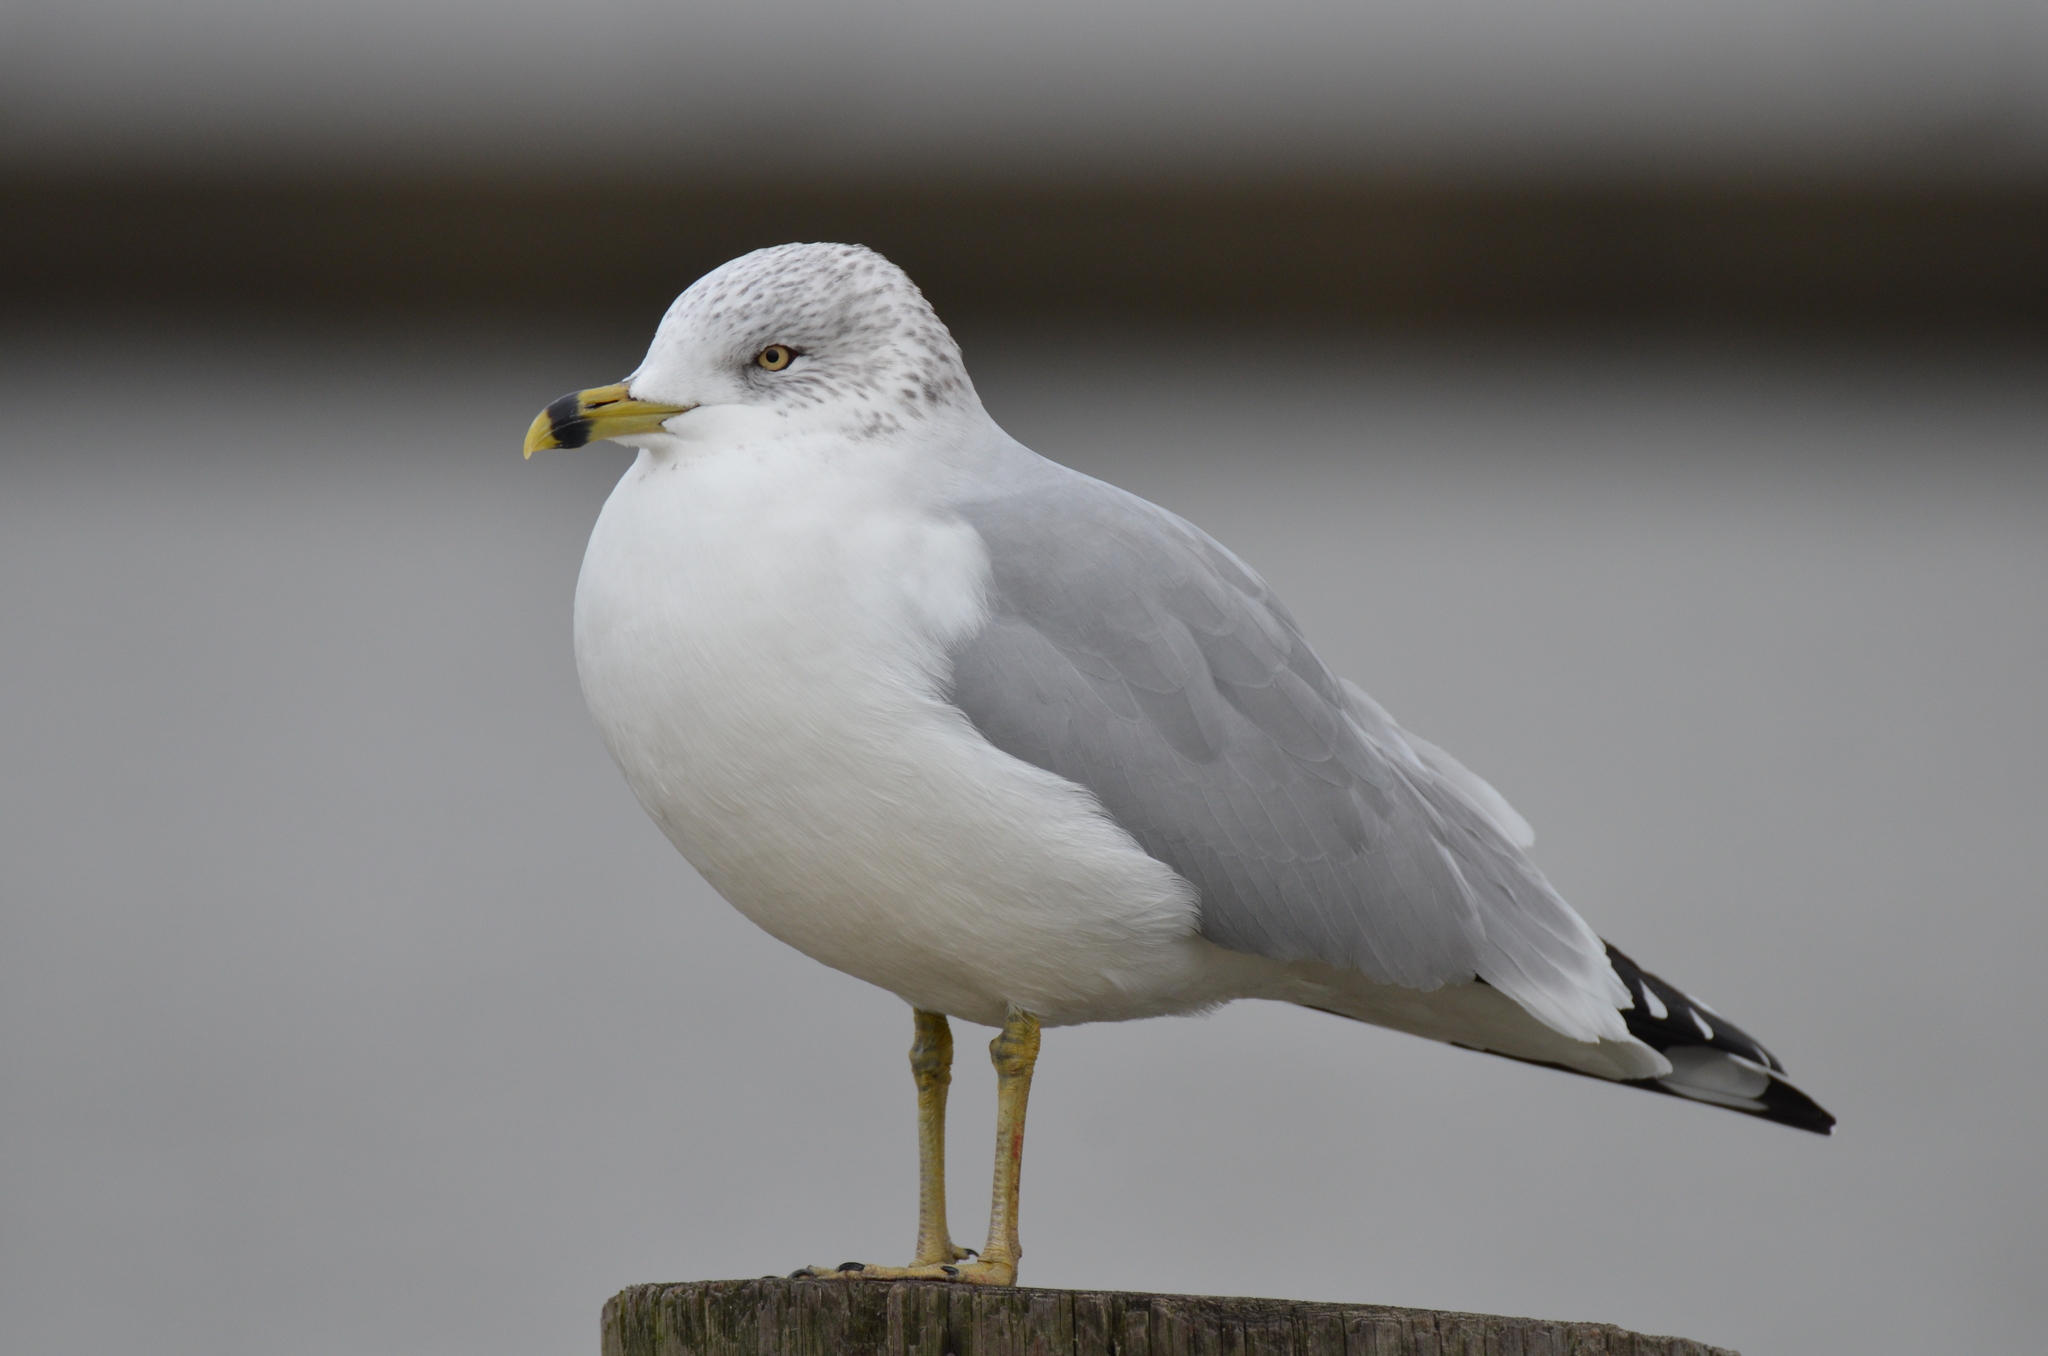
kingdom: Animalia
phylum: Chordata
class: Aves
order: Charadriiformes
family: Laridae
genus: Larus
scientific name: Larus delawarensis
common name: Ring-billed gull
